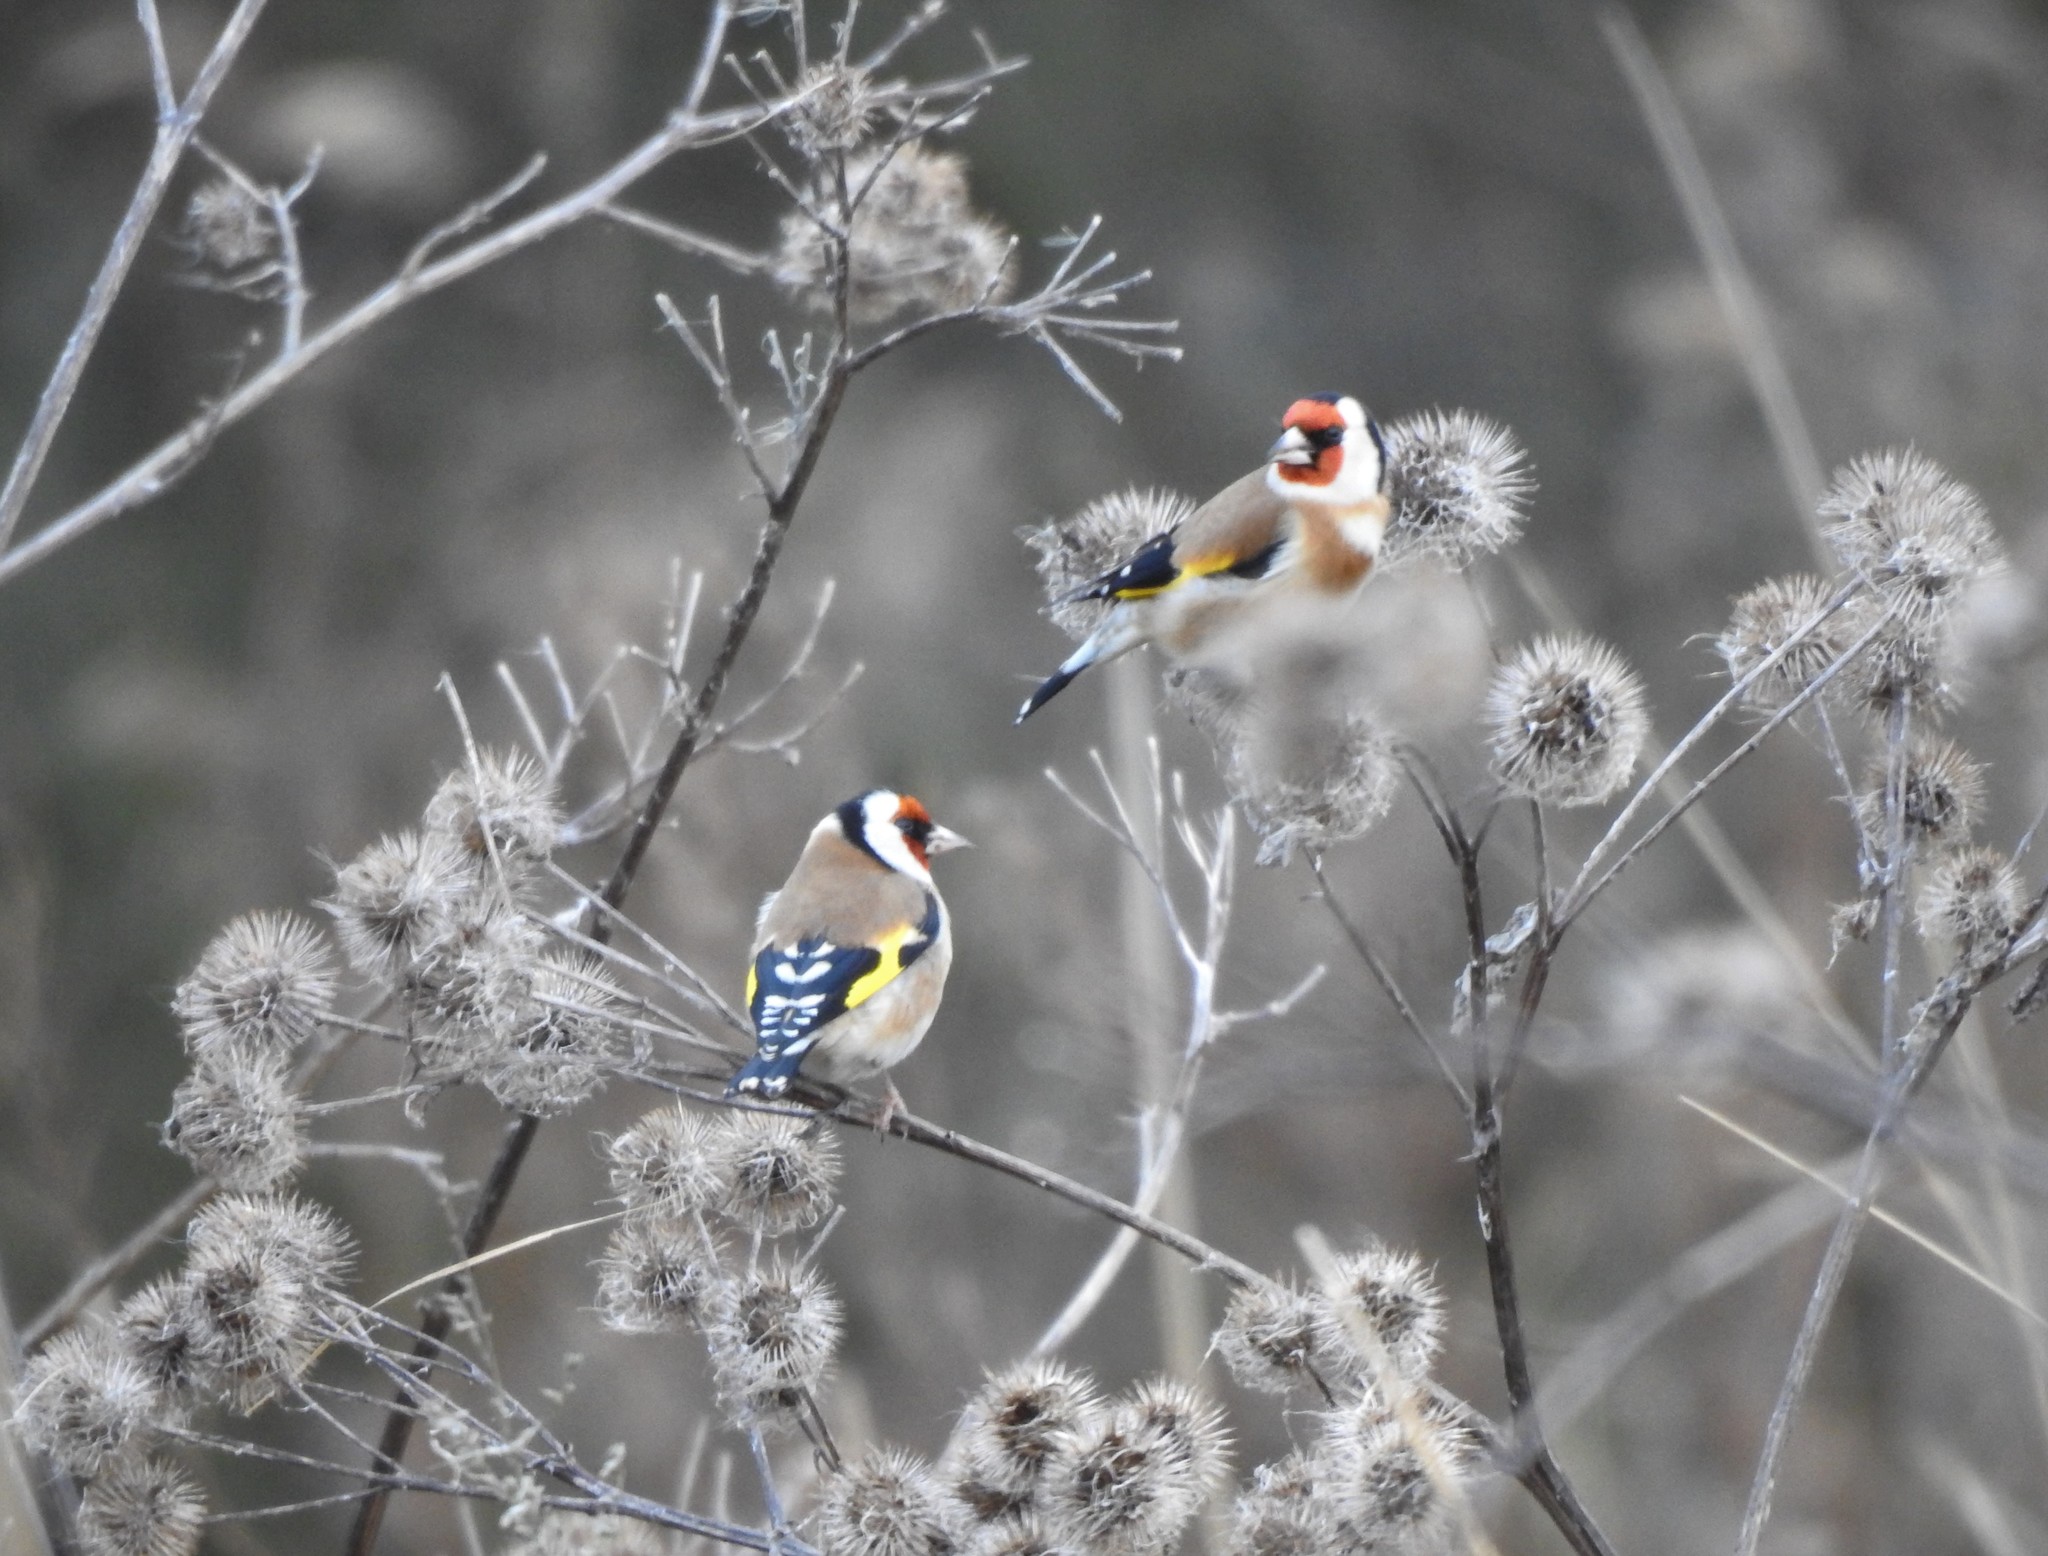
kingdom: Animalia
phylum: Chordata
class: Aves
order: Passeriformes
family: Fringillidae
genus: Carduelis
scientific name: Carduelis carduelis
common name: European goldfinch
